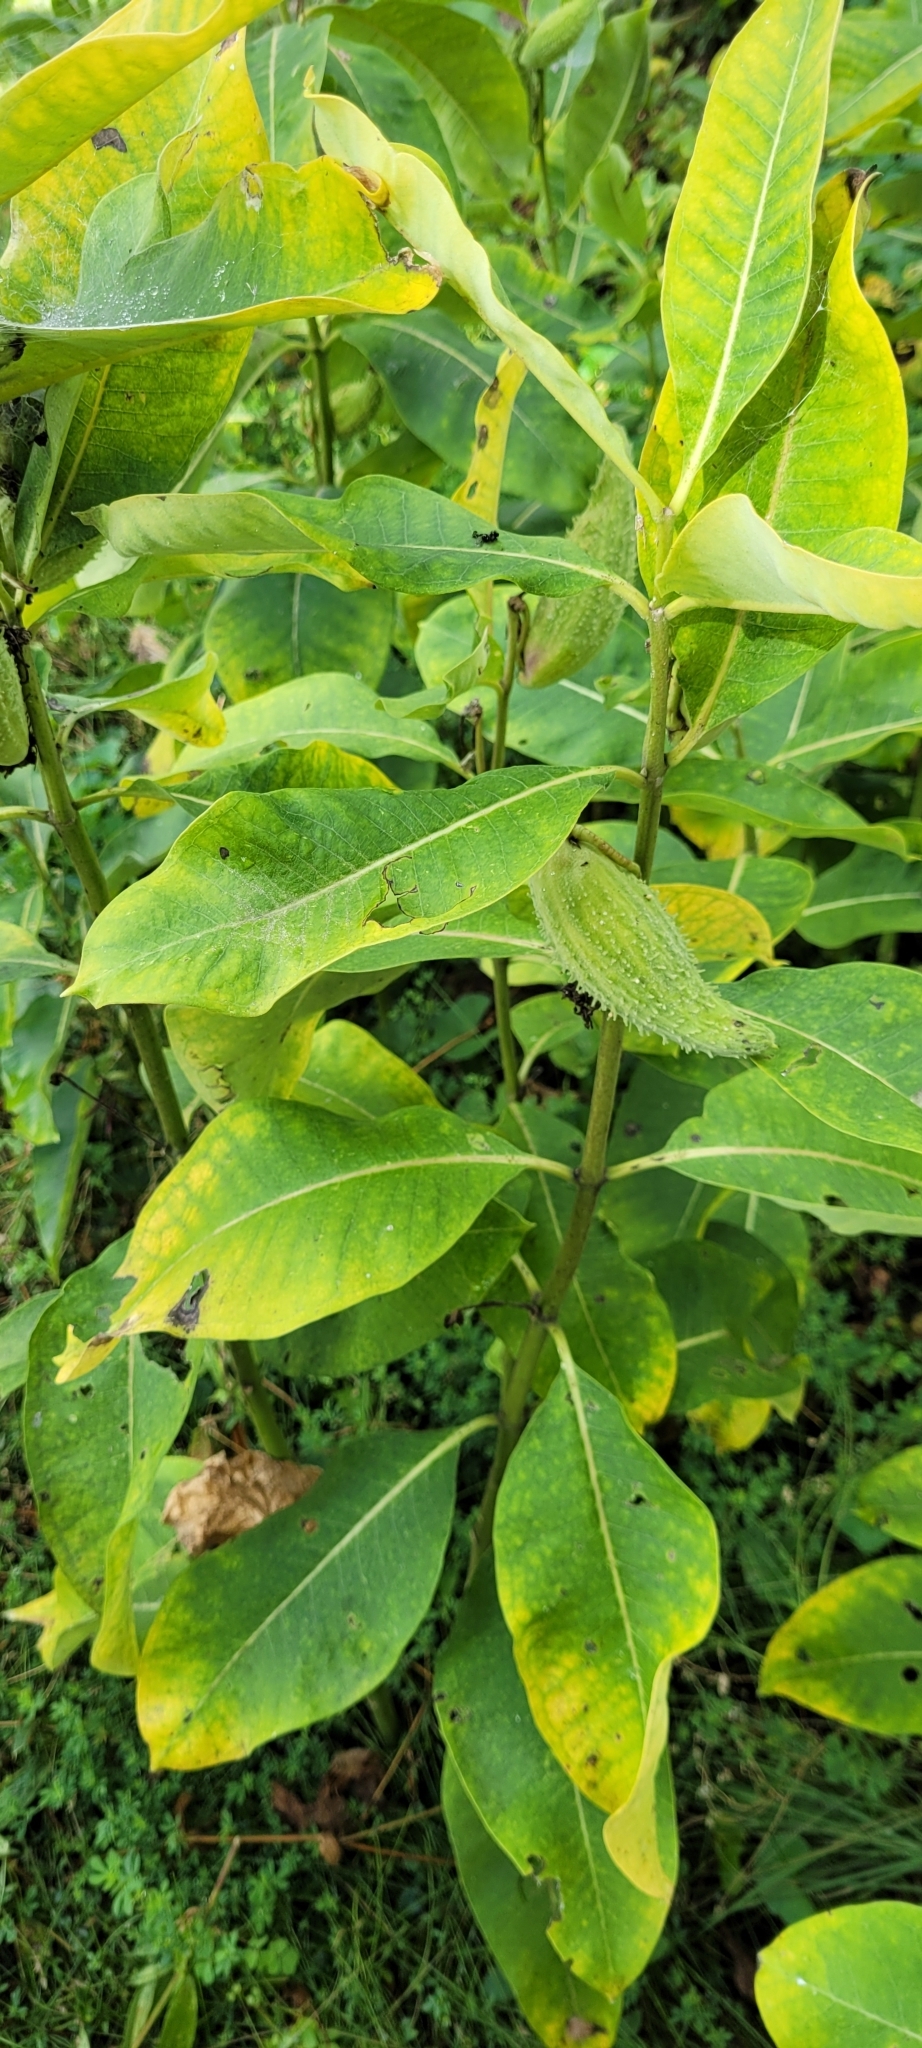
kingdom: Plantae
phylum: Tracheophyta
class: Magnoliopsida
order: Gentianales
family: Apocynaceae
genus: Asclepias
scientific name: Asclepias syriaca
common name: Common milkweed
